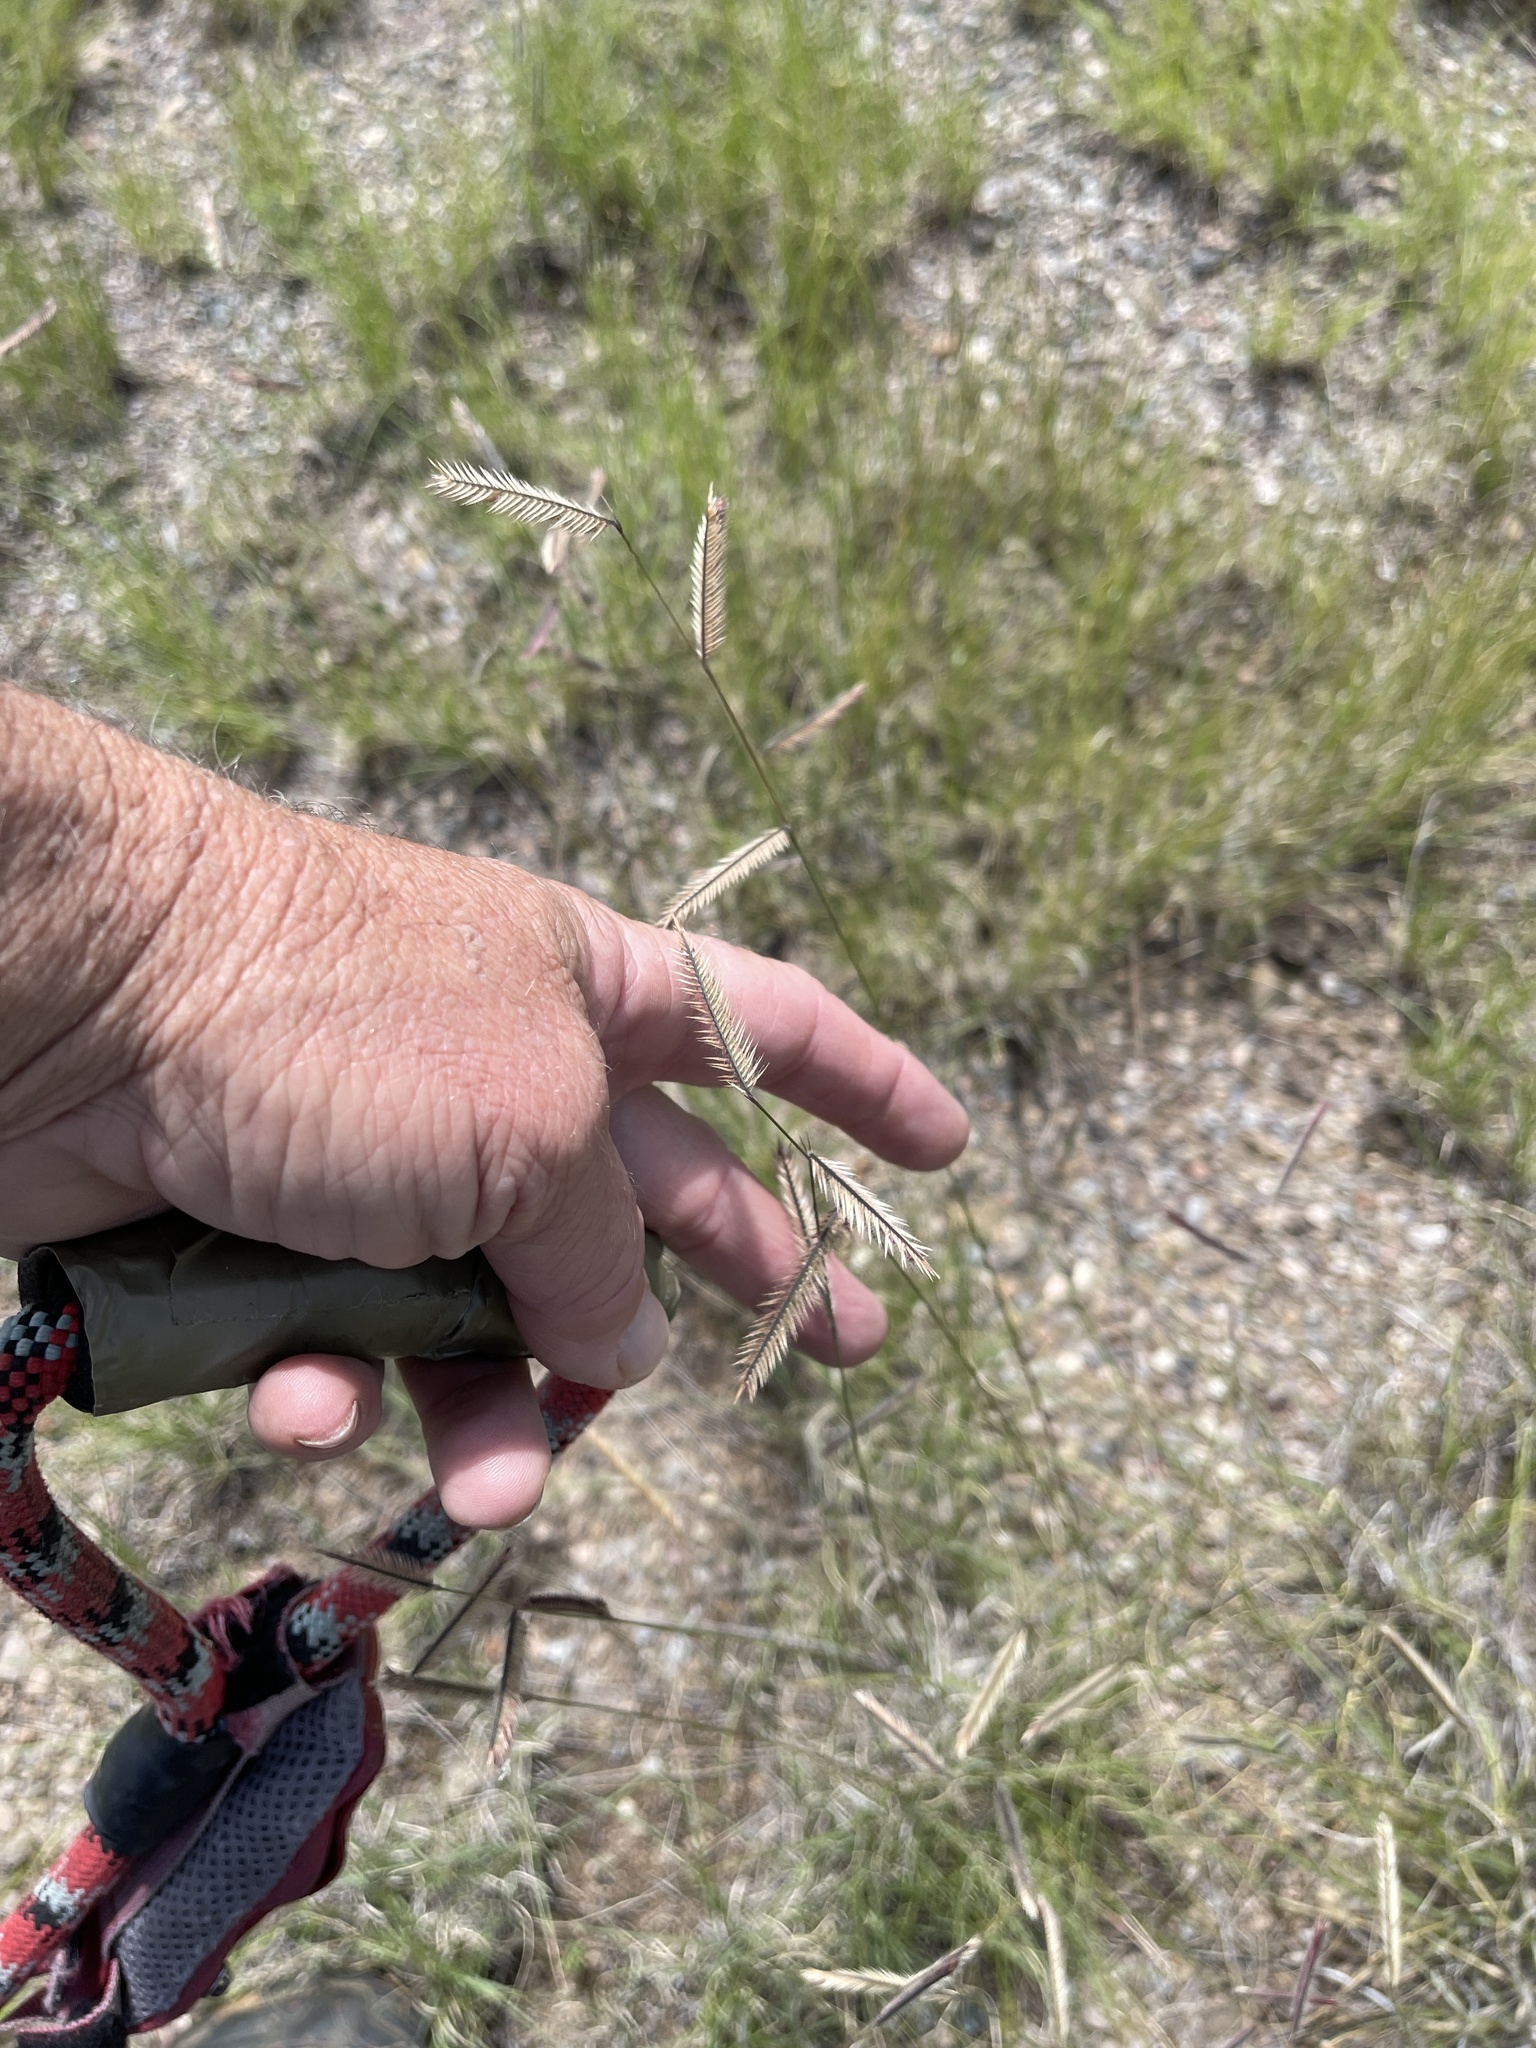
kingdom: Plantae
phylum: Tracheophyta
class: Liliopsida
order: Poales
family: Poaceae
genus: Bouteloua
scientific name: Bouteloua gracilis
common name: Blue grama
